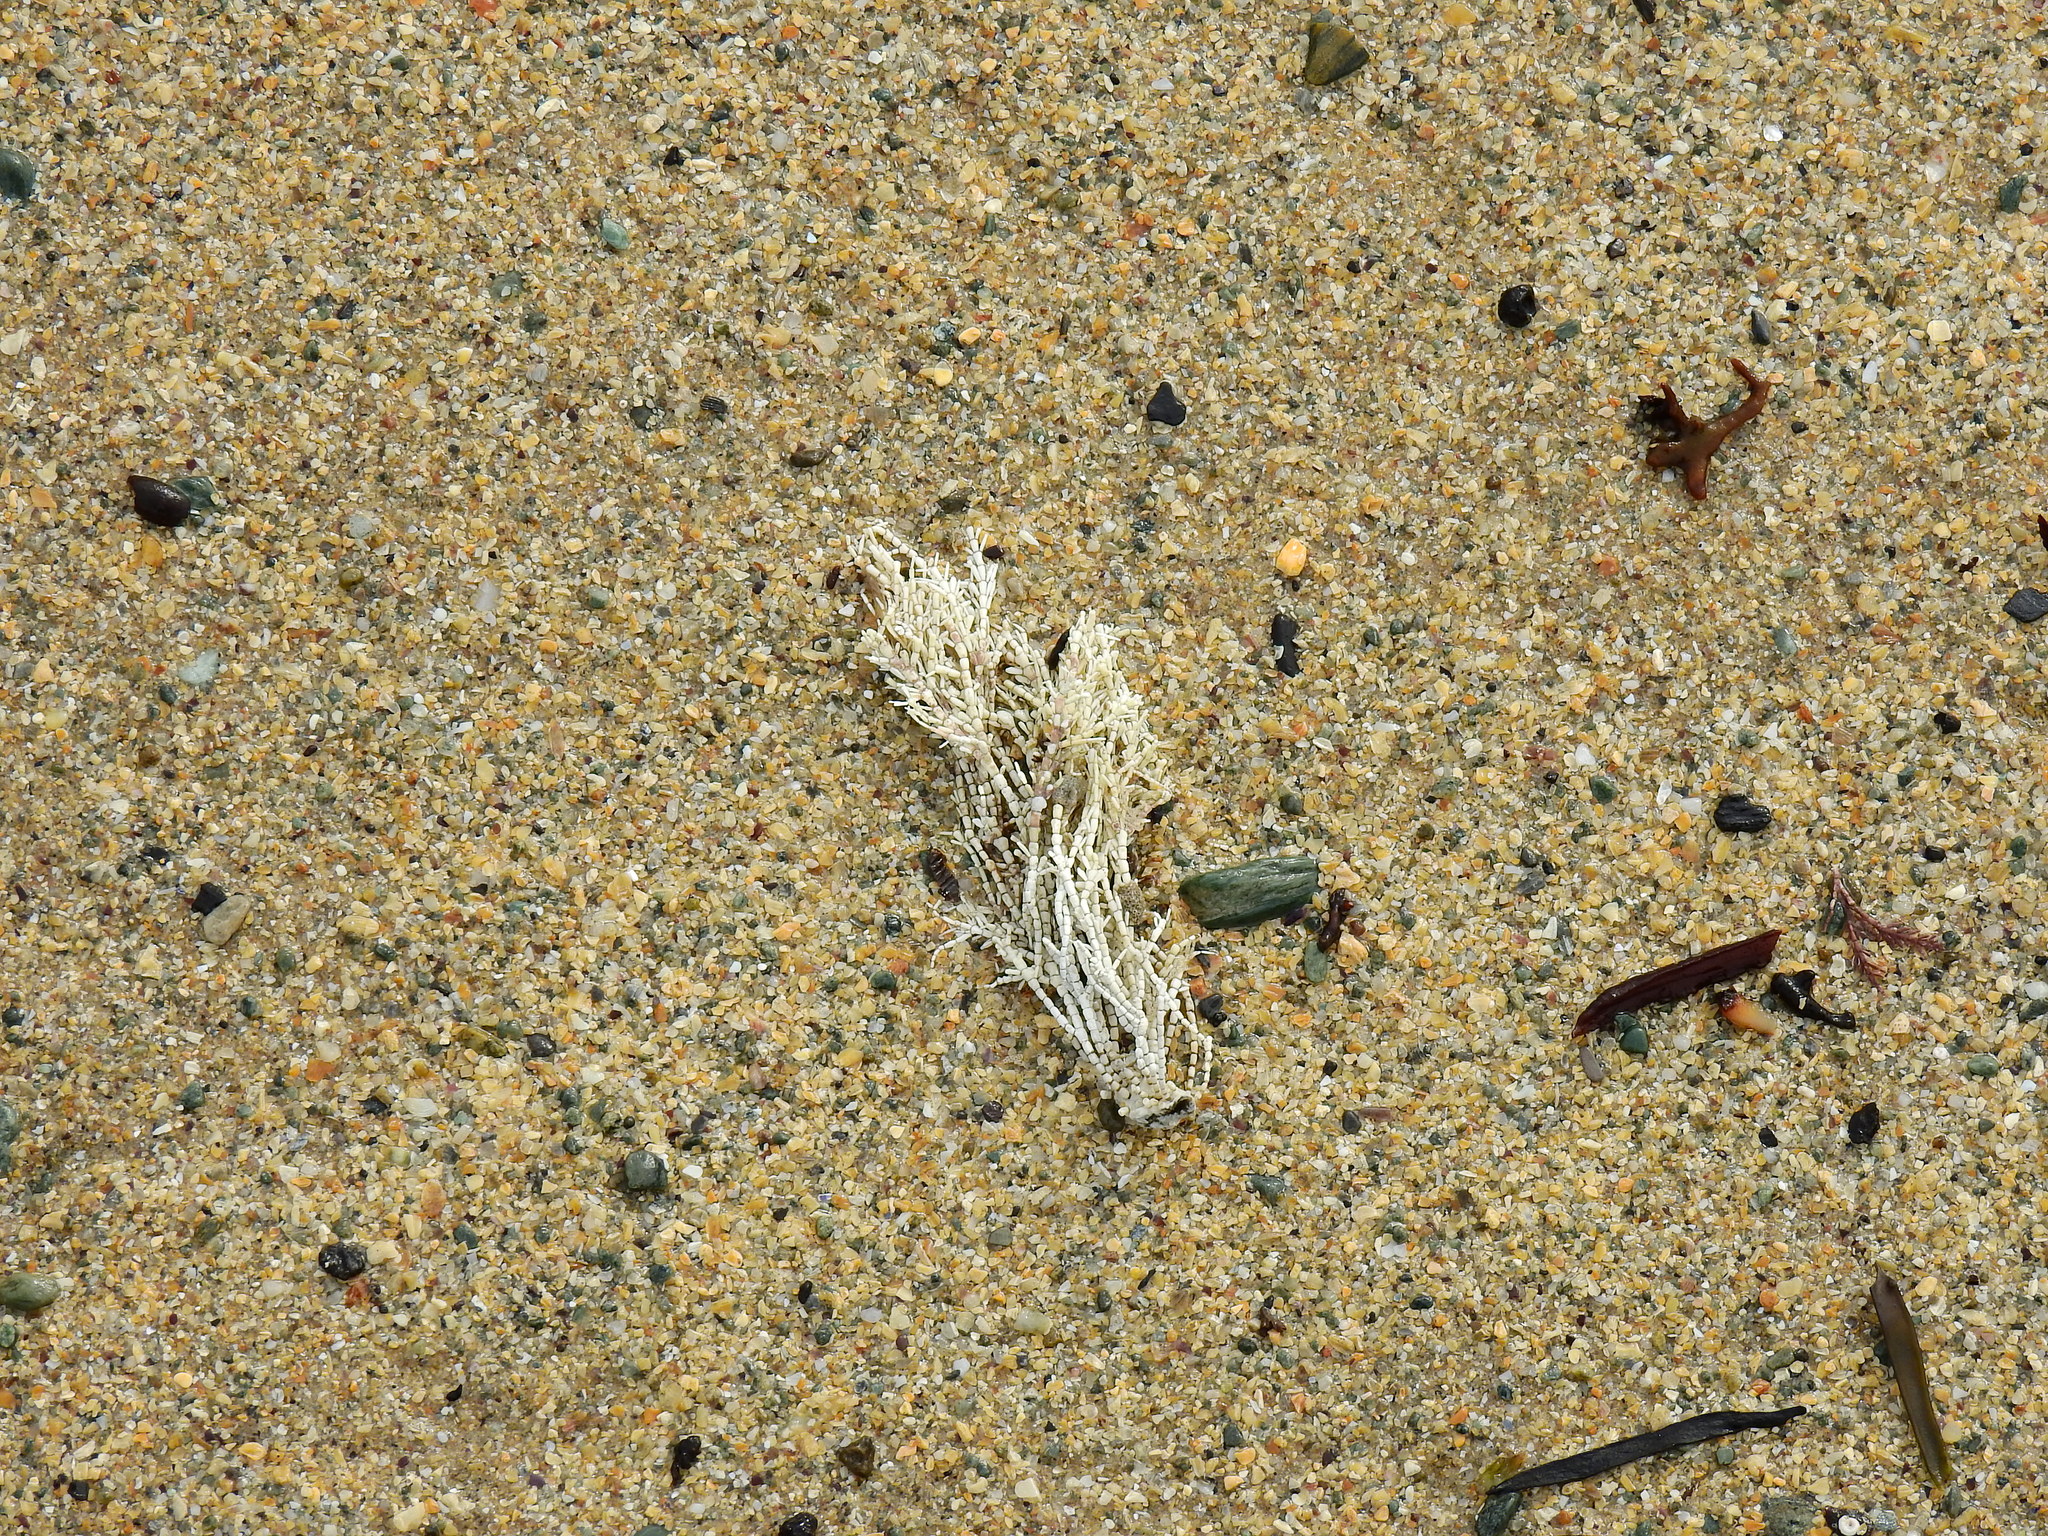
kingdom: Plantae
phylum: Rhodophyta
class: Florideophyceae
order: Corallinales
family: Corallinaceae
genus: Corallina
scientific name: Corallina officinalis
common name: Coral weed
